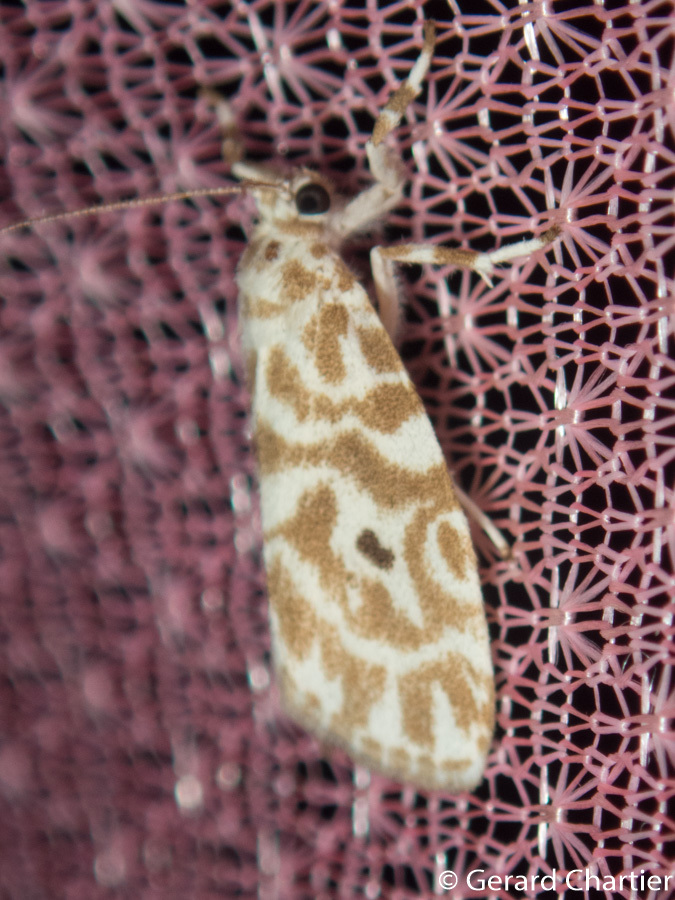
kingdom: Animalia
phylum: Arthropoda
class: Insecta
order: Lepidoptera
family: Erebidae
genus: Cabarda
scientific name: Cabarda nigripuncta
